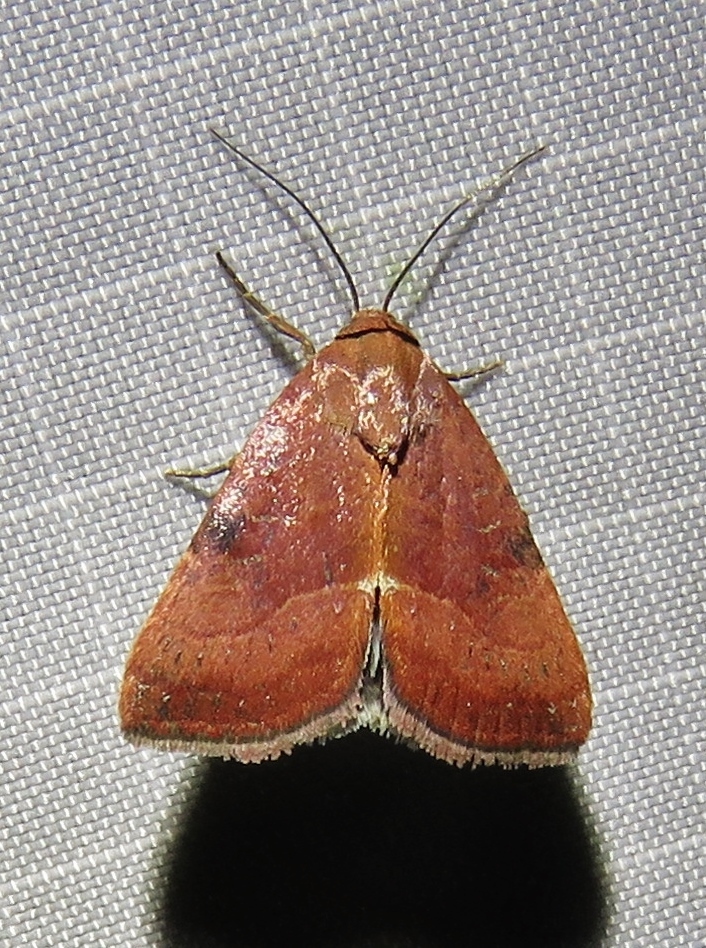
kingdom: Animalia
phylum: Arthropoda
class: Insecta
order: Lepidoptera
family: Noctuidae
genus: Galgula
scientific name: Galgula partita
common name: Wedgeling
